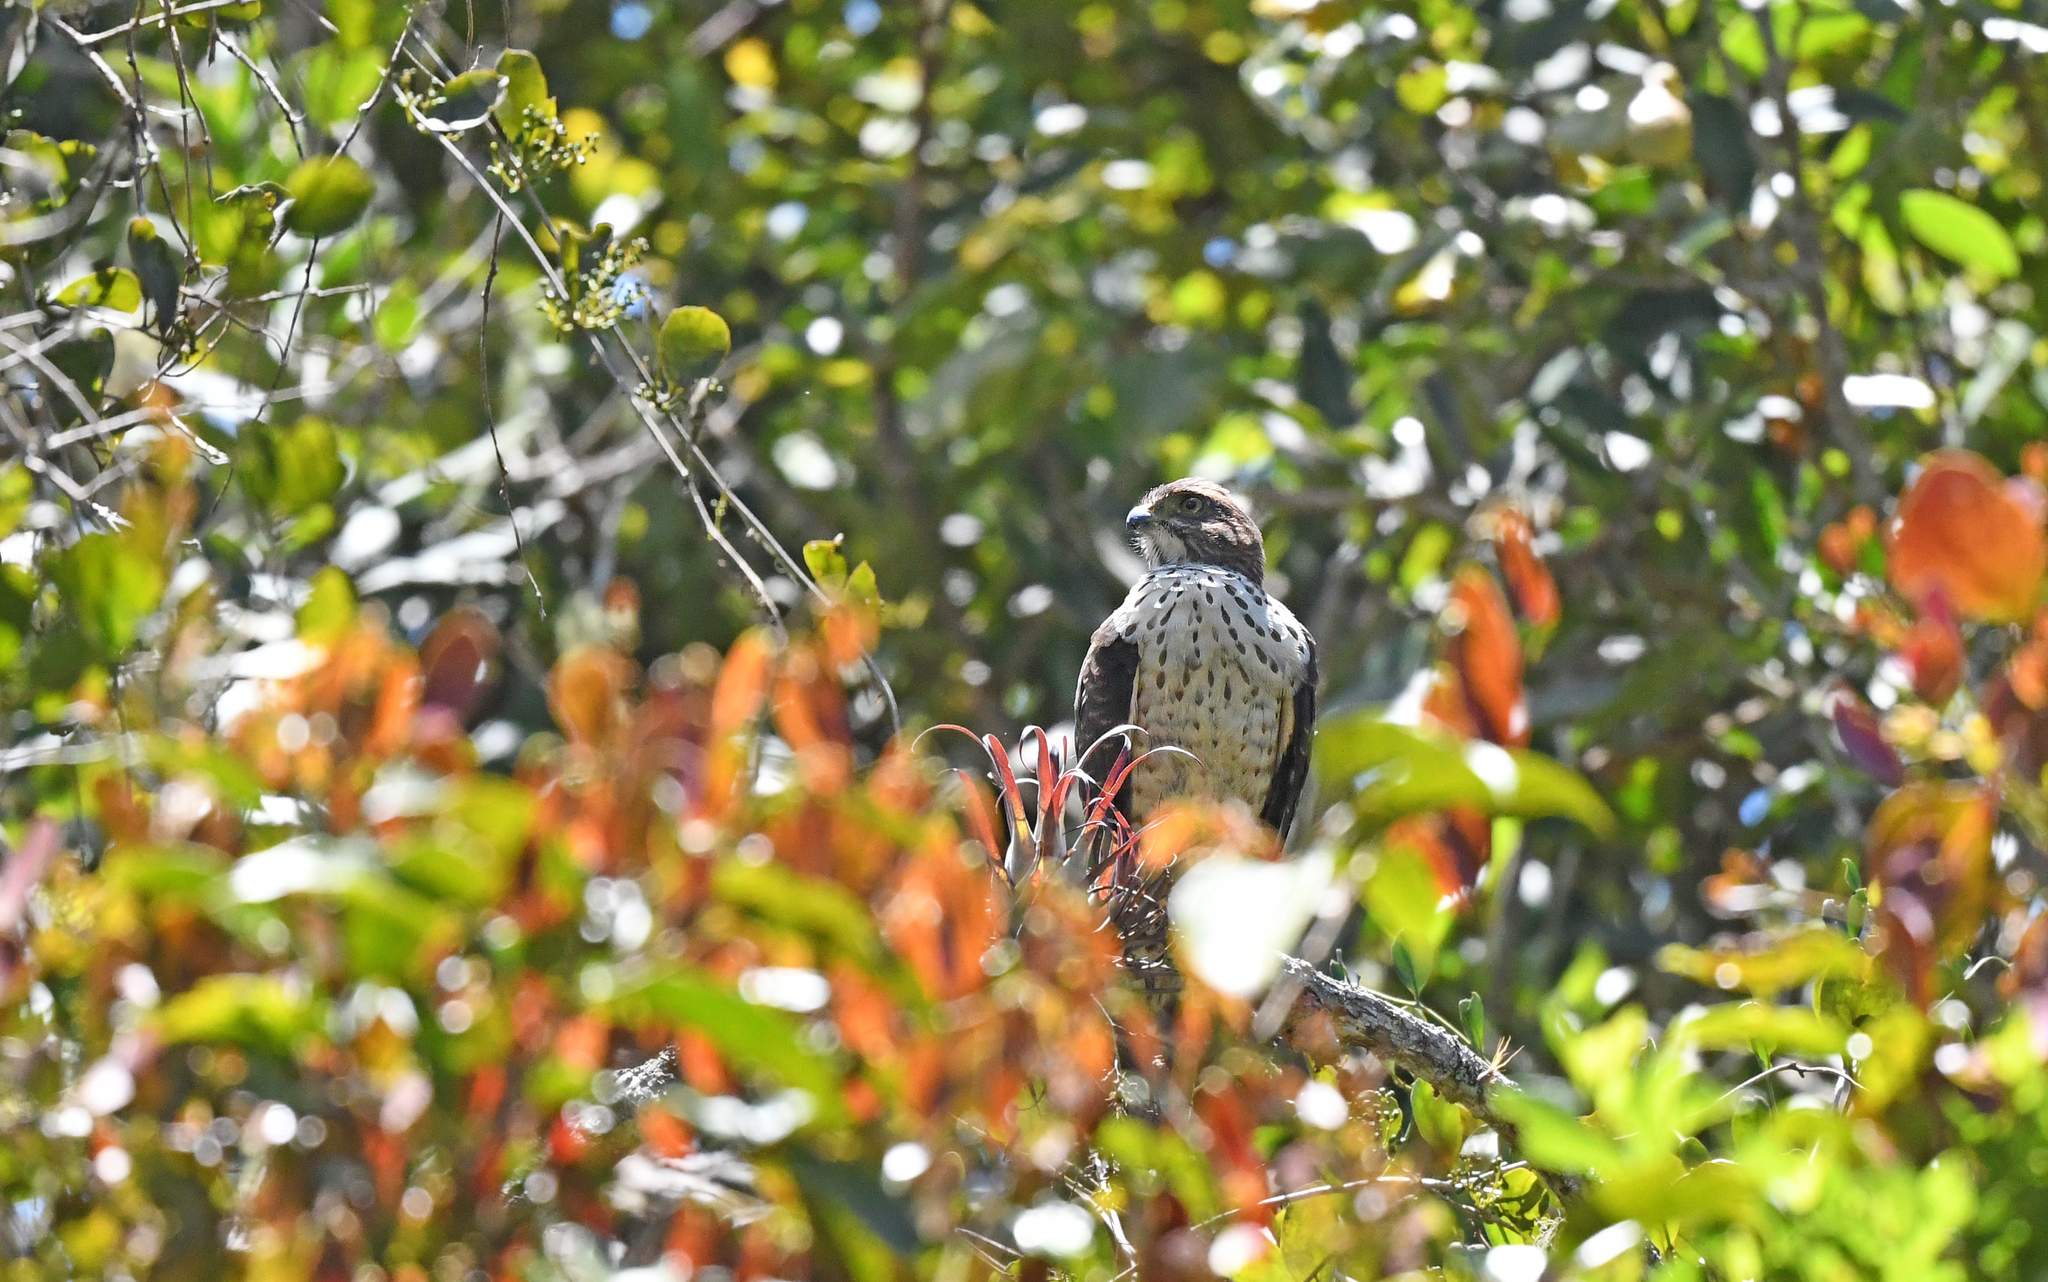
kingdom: Animalia
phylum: Chordata
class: Aves
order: Accipitriformes
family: Accipitridae
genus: Harpagus
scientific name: Harpagus bidentatus
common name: Double-toothed kite
